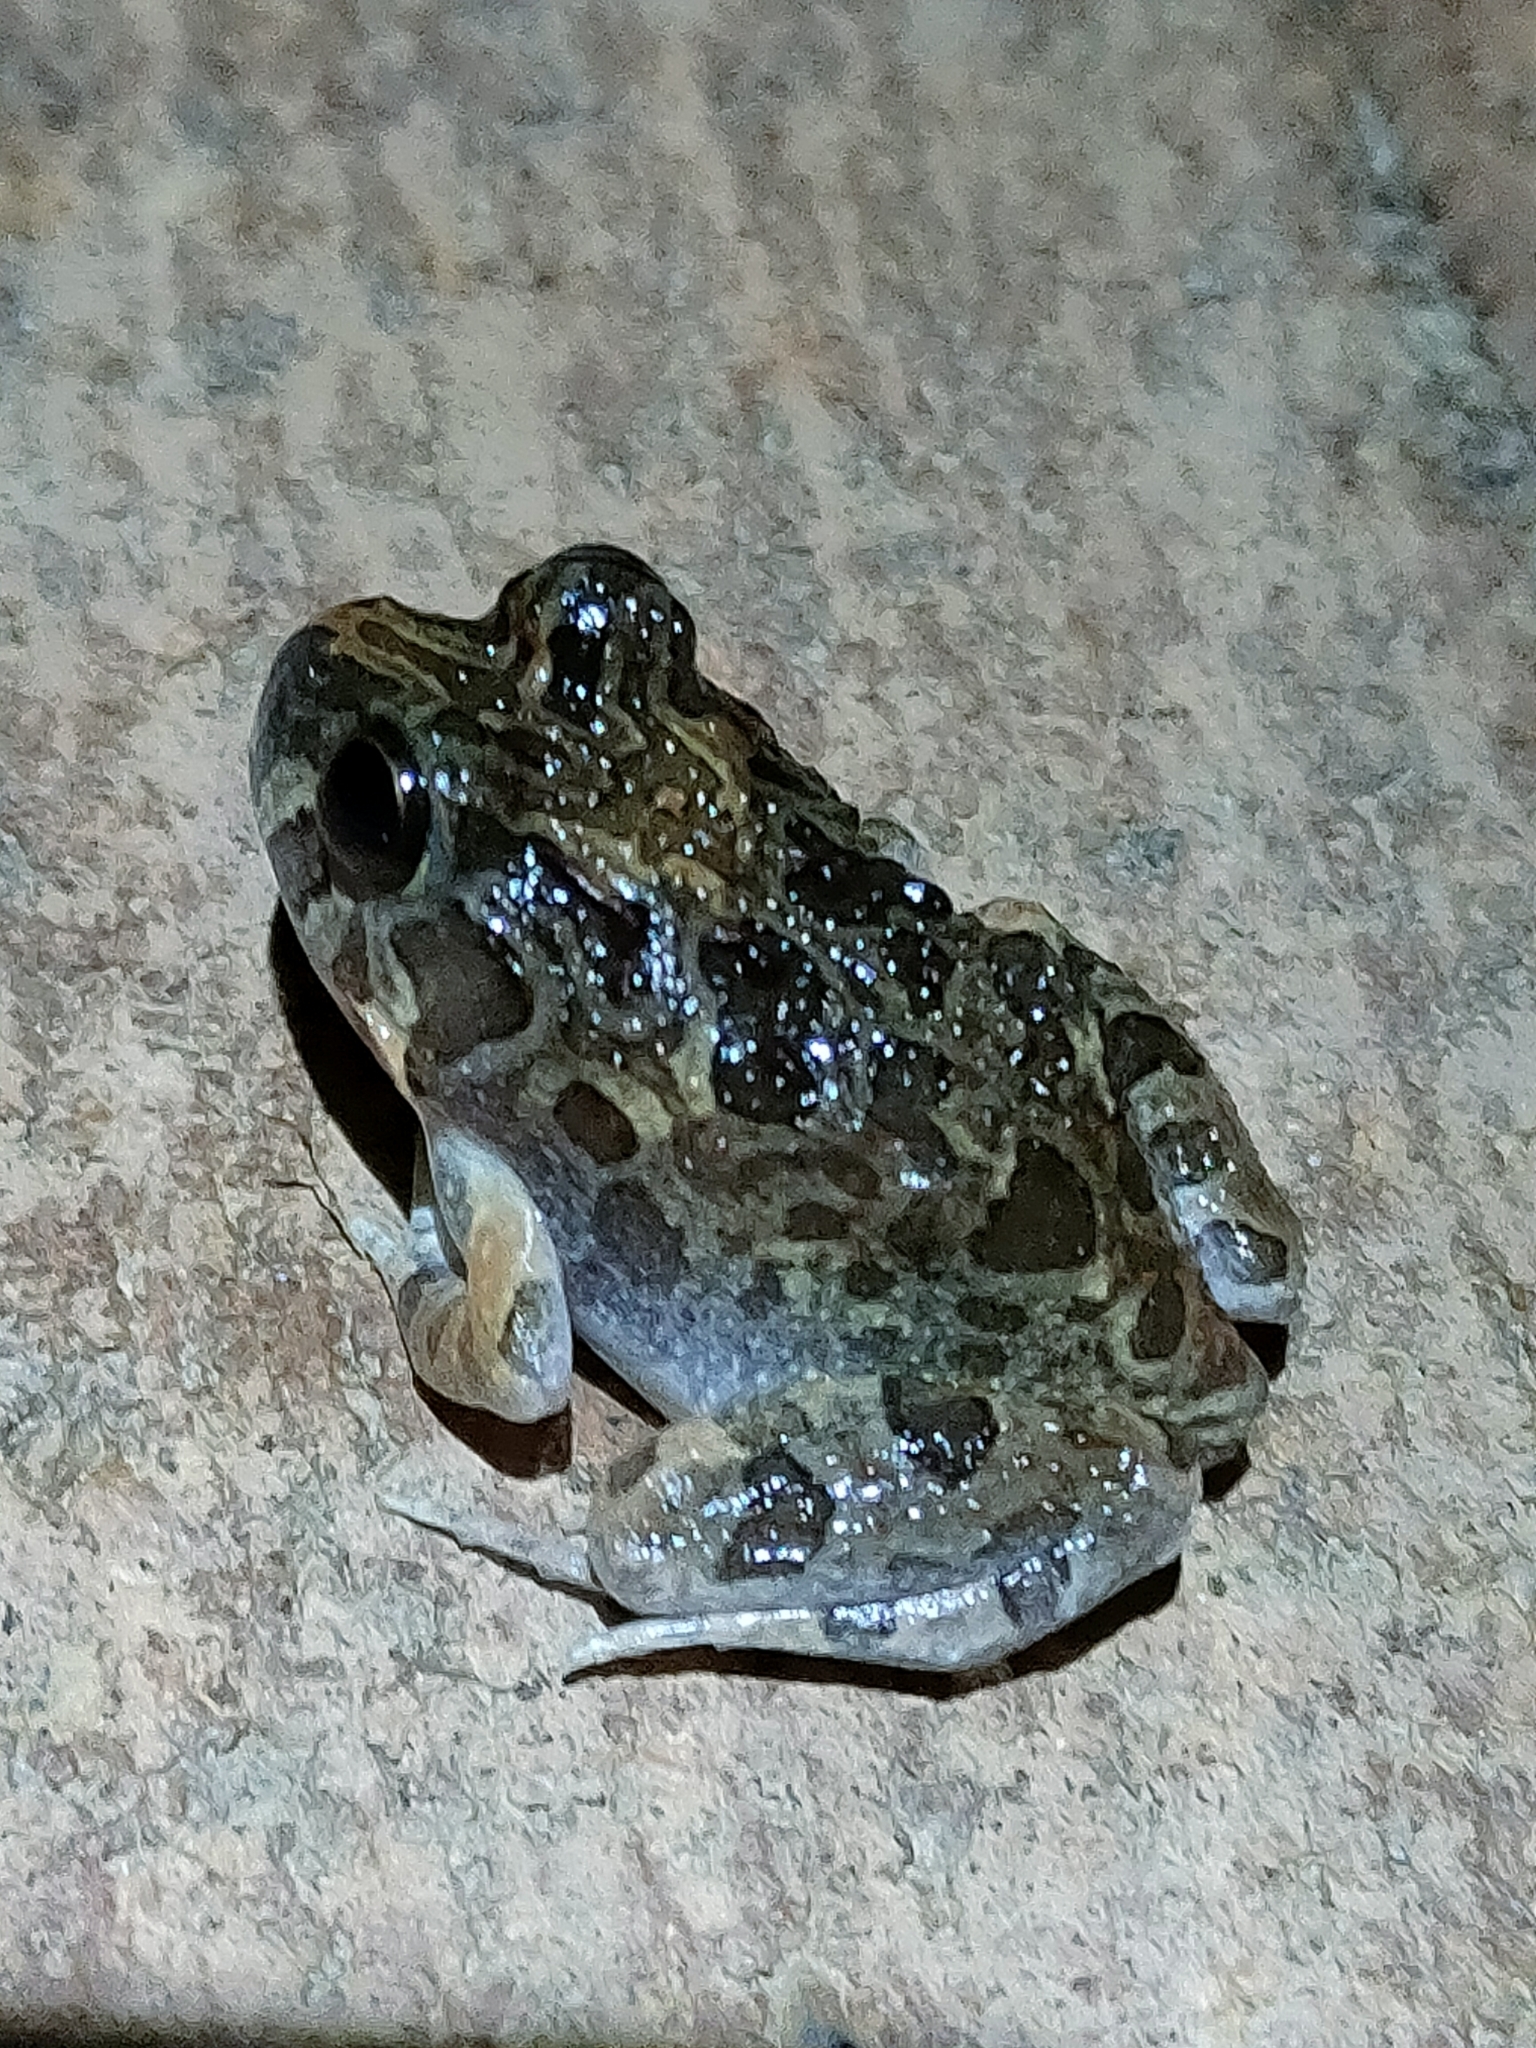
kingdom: Animalia
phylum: Chordata
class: Amphibia
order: Anura
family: Limnodynastidae
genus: Platyplectrum
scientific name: Platyplectrum ornatum
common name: Ornate burrowing frog
